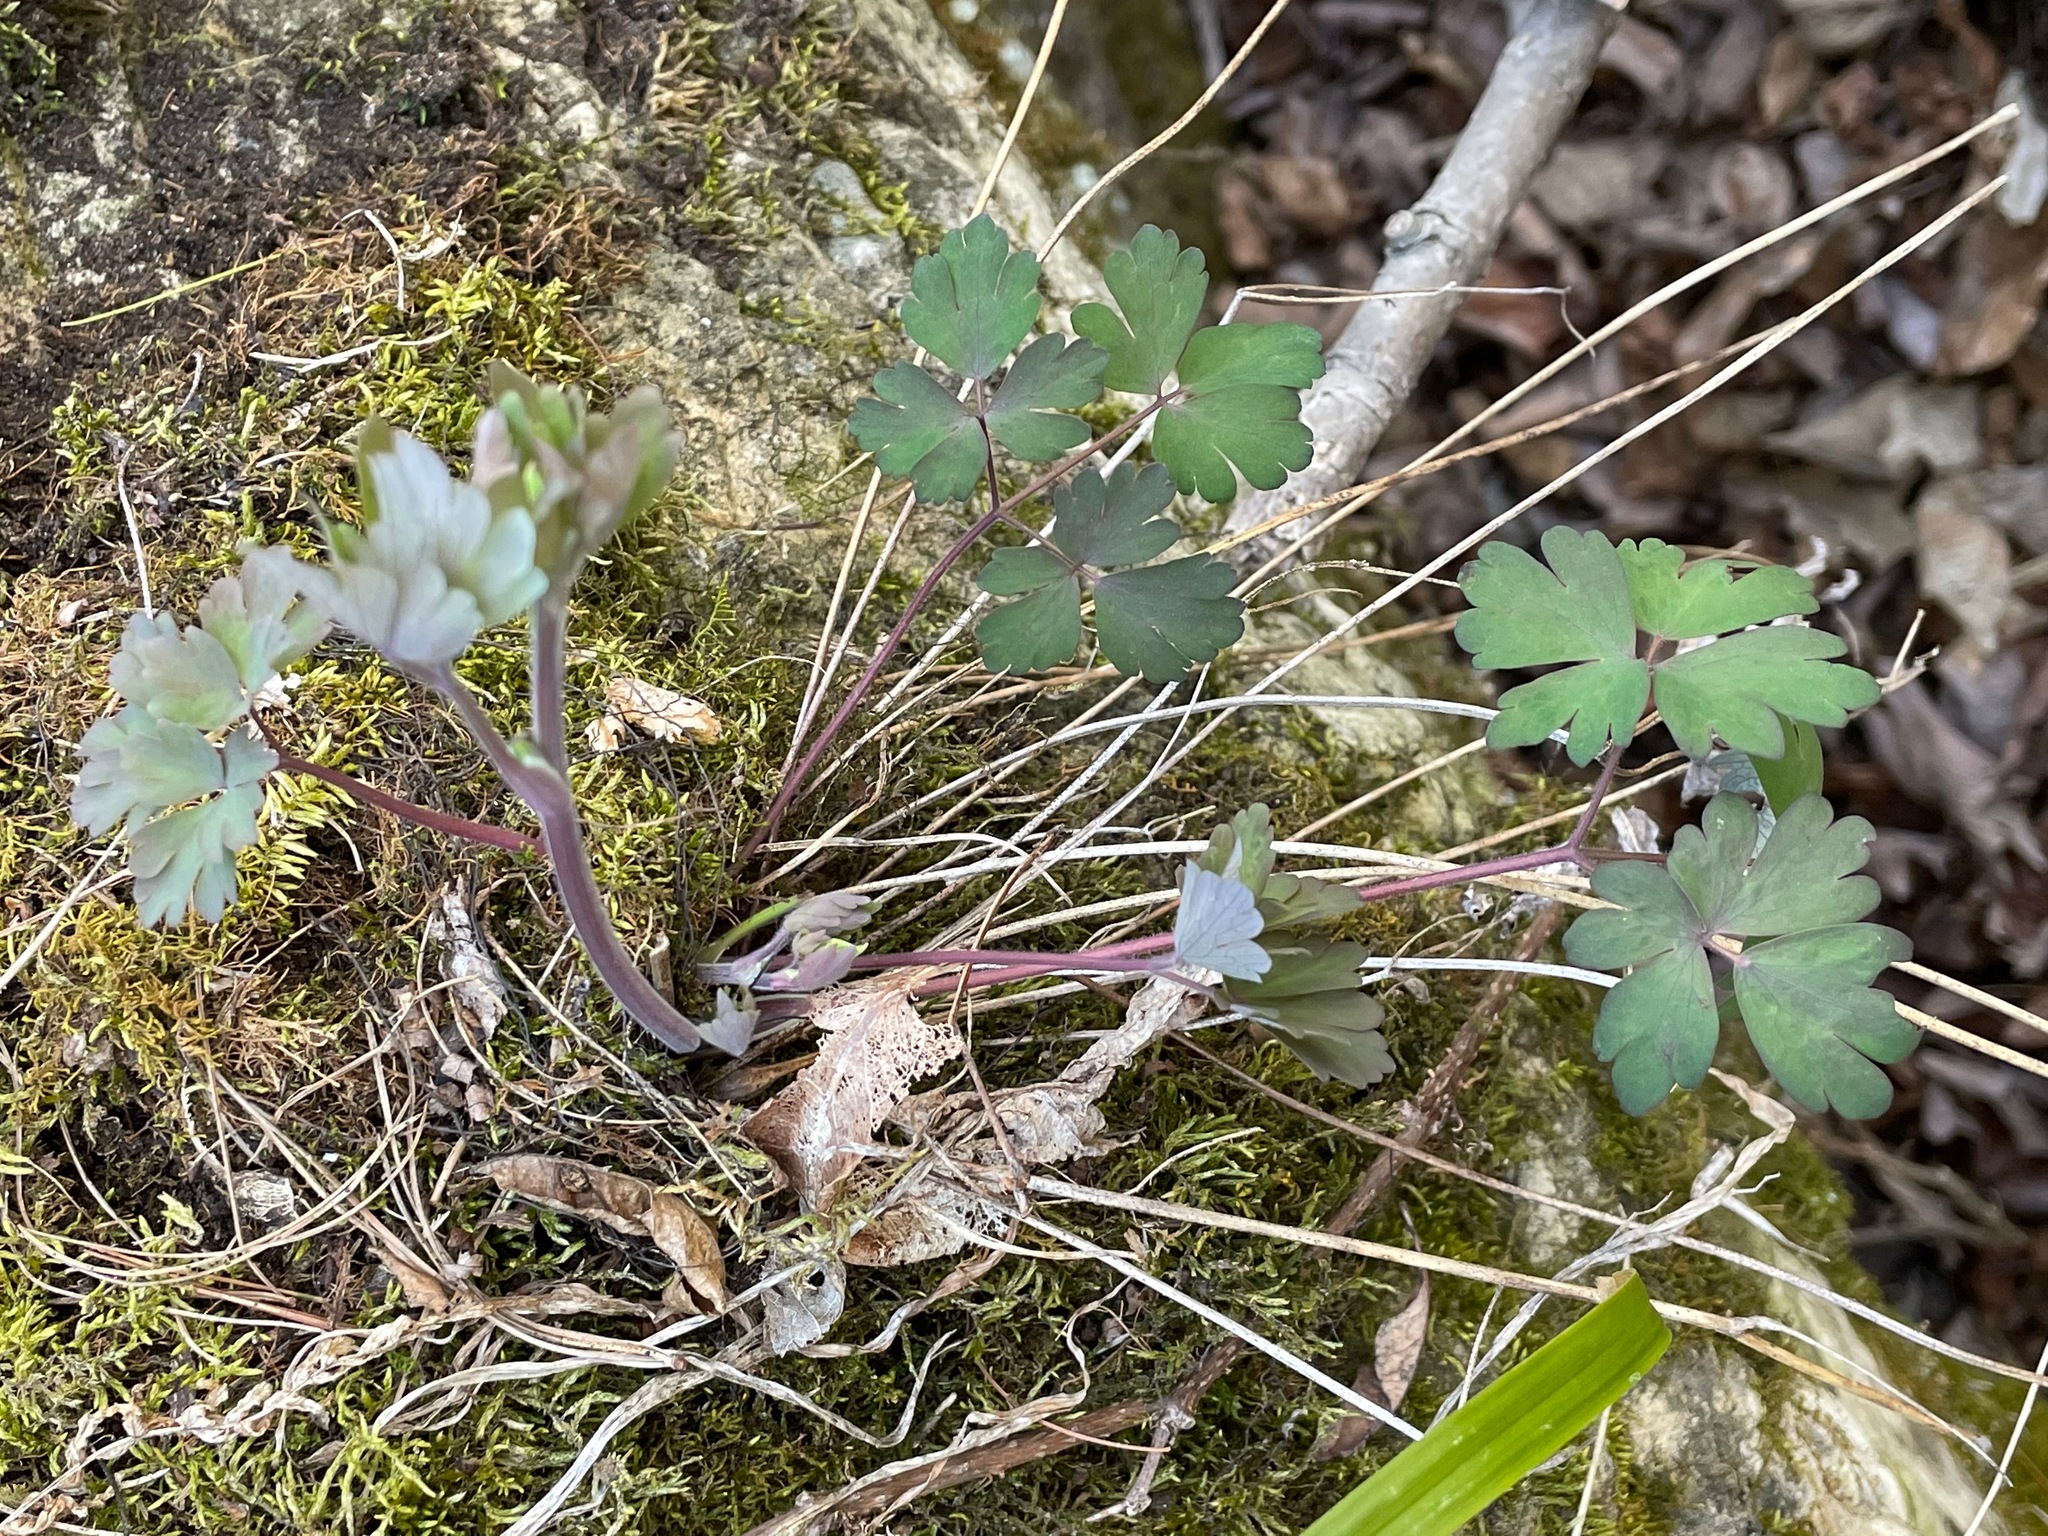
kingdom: Plantae
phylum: Tracheophyta
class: Magnoliopsida
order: Ranunculales
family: Ranunculaceae
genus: Aquilegia
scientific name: Aquilegia canadensis
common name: American columbine
